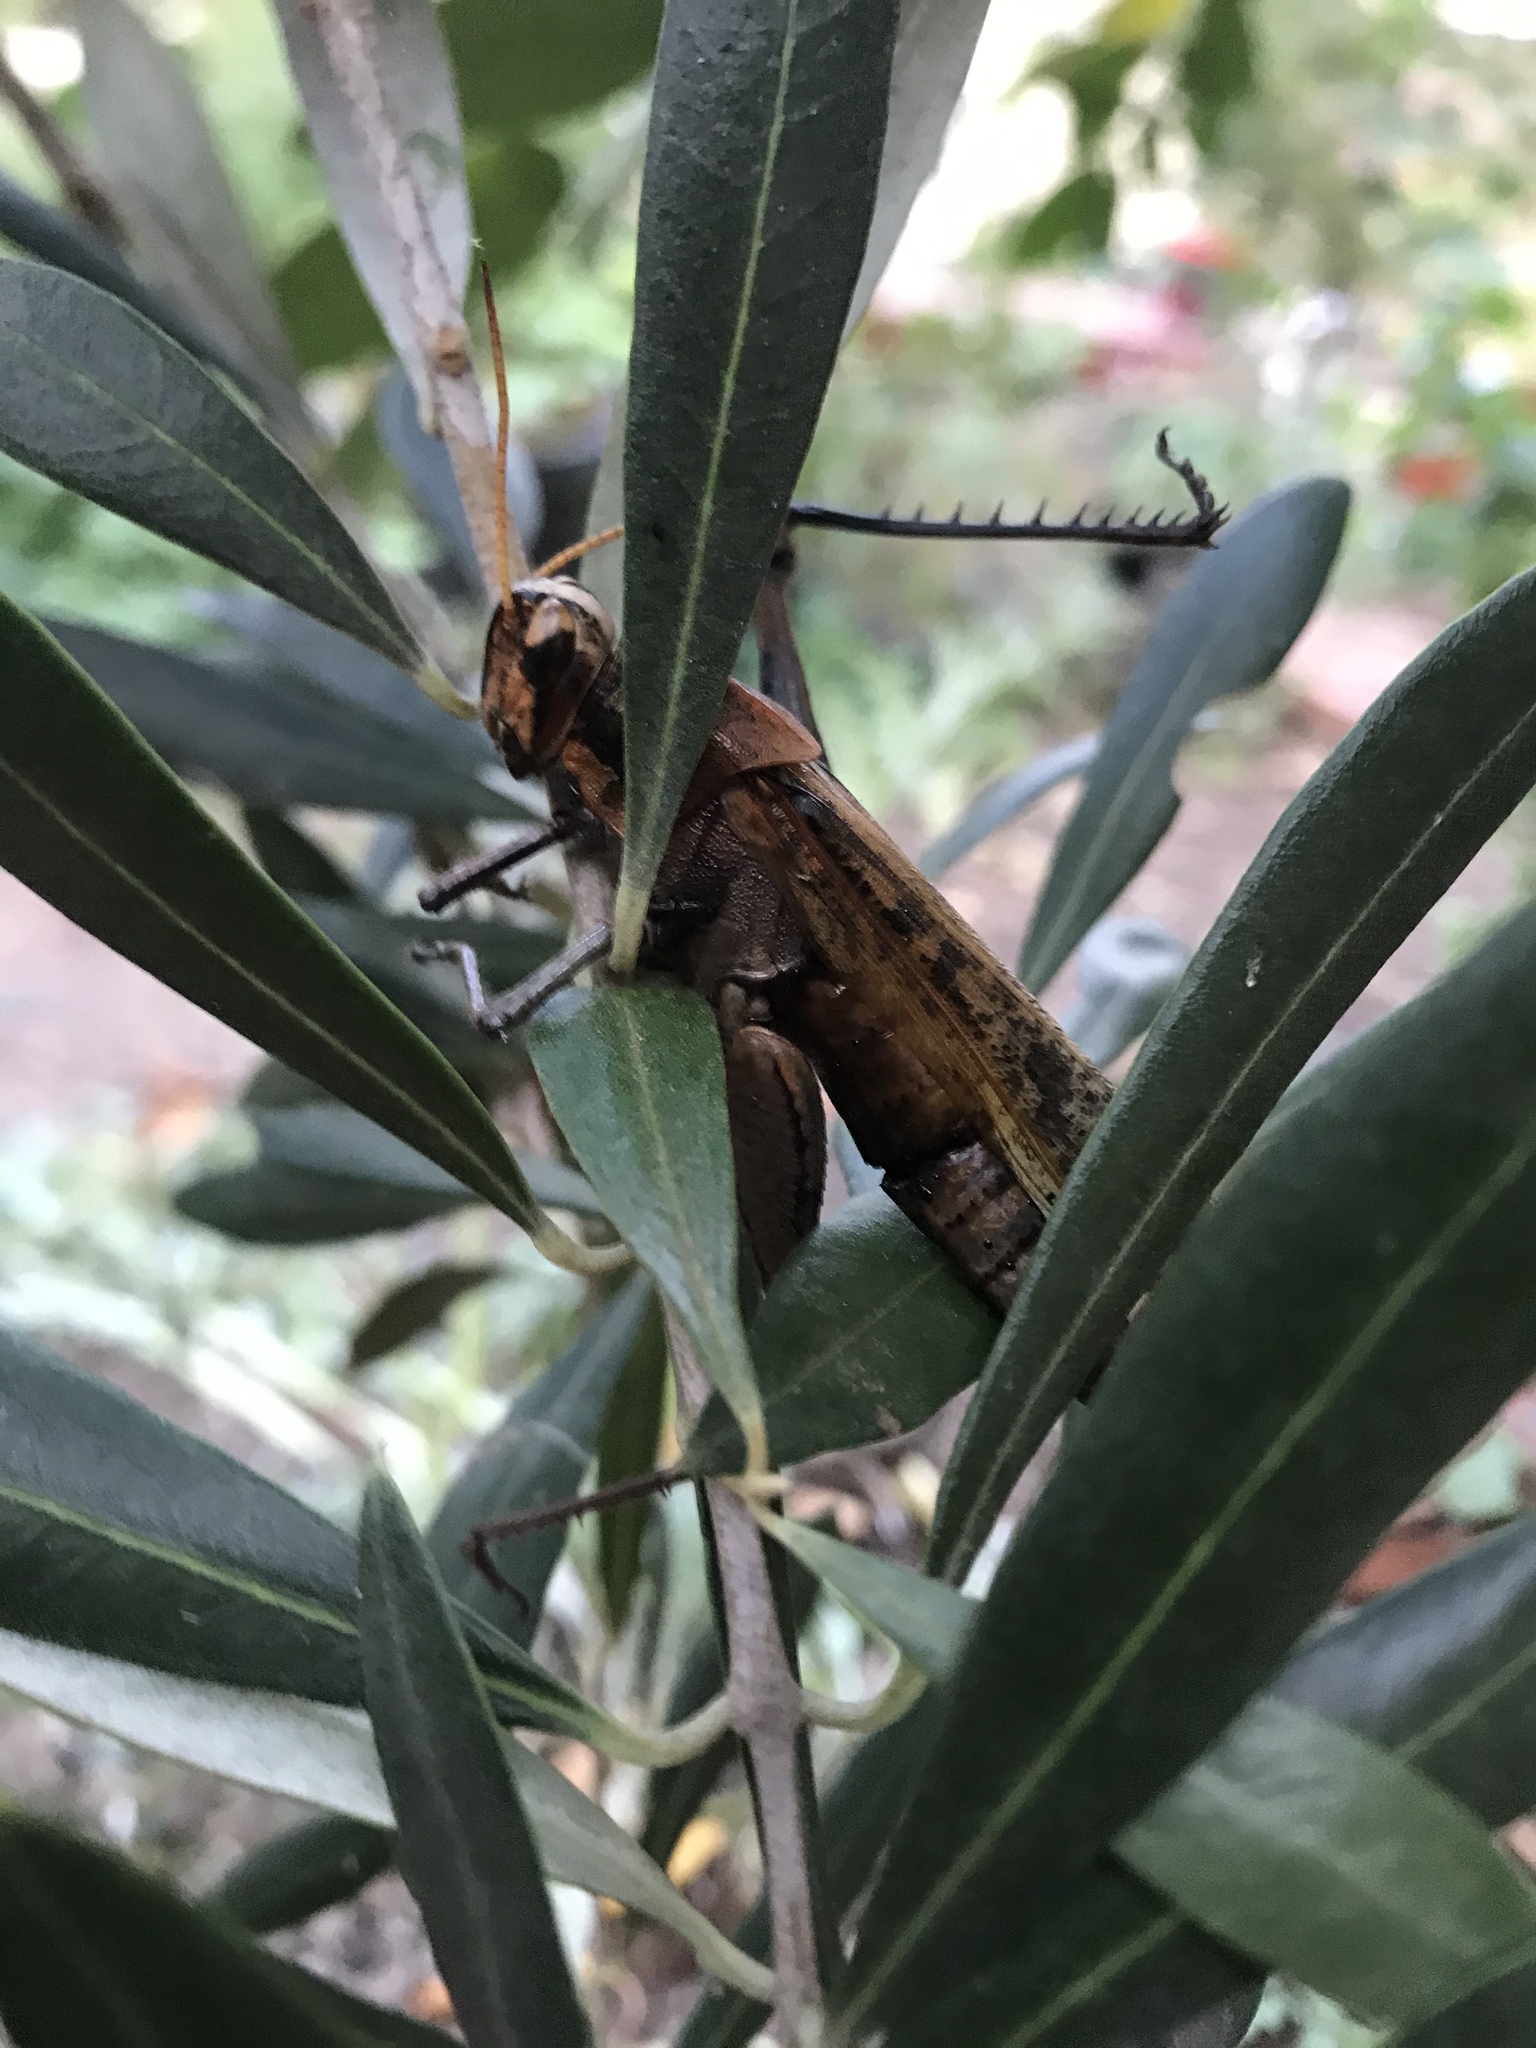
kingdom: Animalia
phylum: Arthropoda
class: Insecta
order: Orthoptera
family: Acrididae
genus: Schistocerca
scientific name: Schistocerca nitens
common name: Vagrant grasshopper
